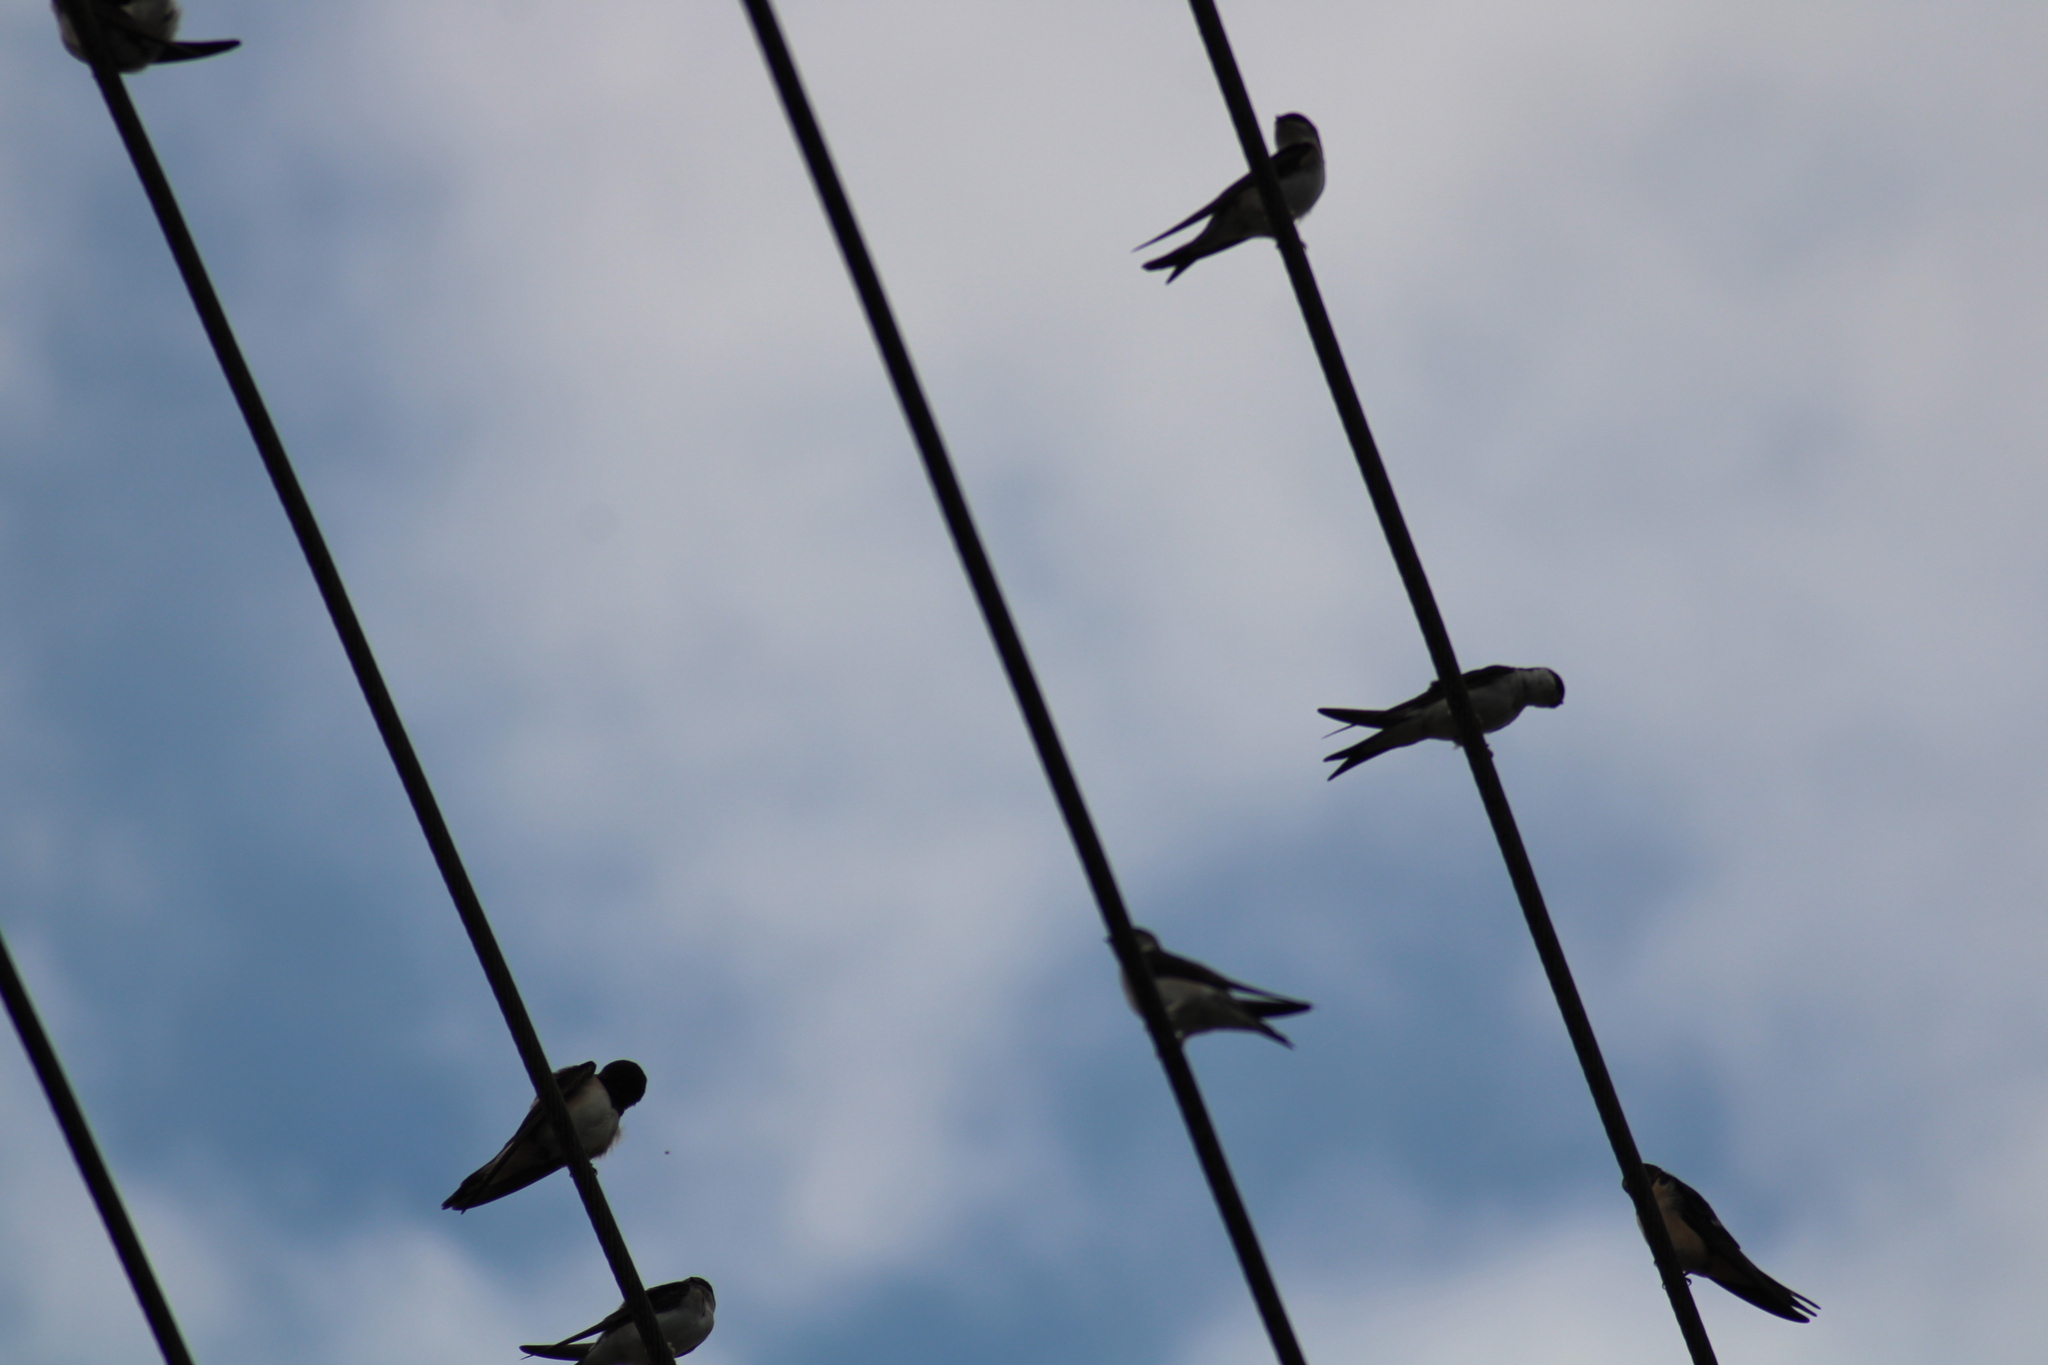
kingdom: Animalia
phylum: Chordata
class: Aves
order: Passeriformes
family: Hirundinidae
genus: Delichon
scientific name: Delichon urbicum
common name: Common house martin
